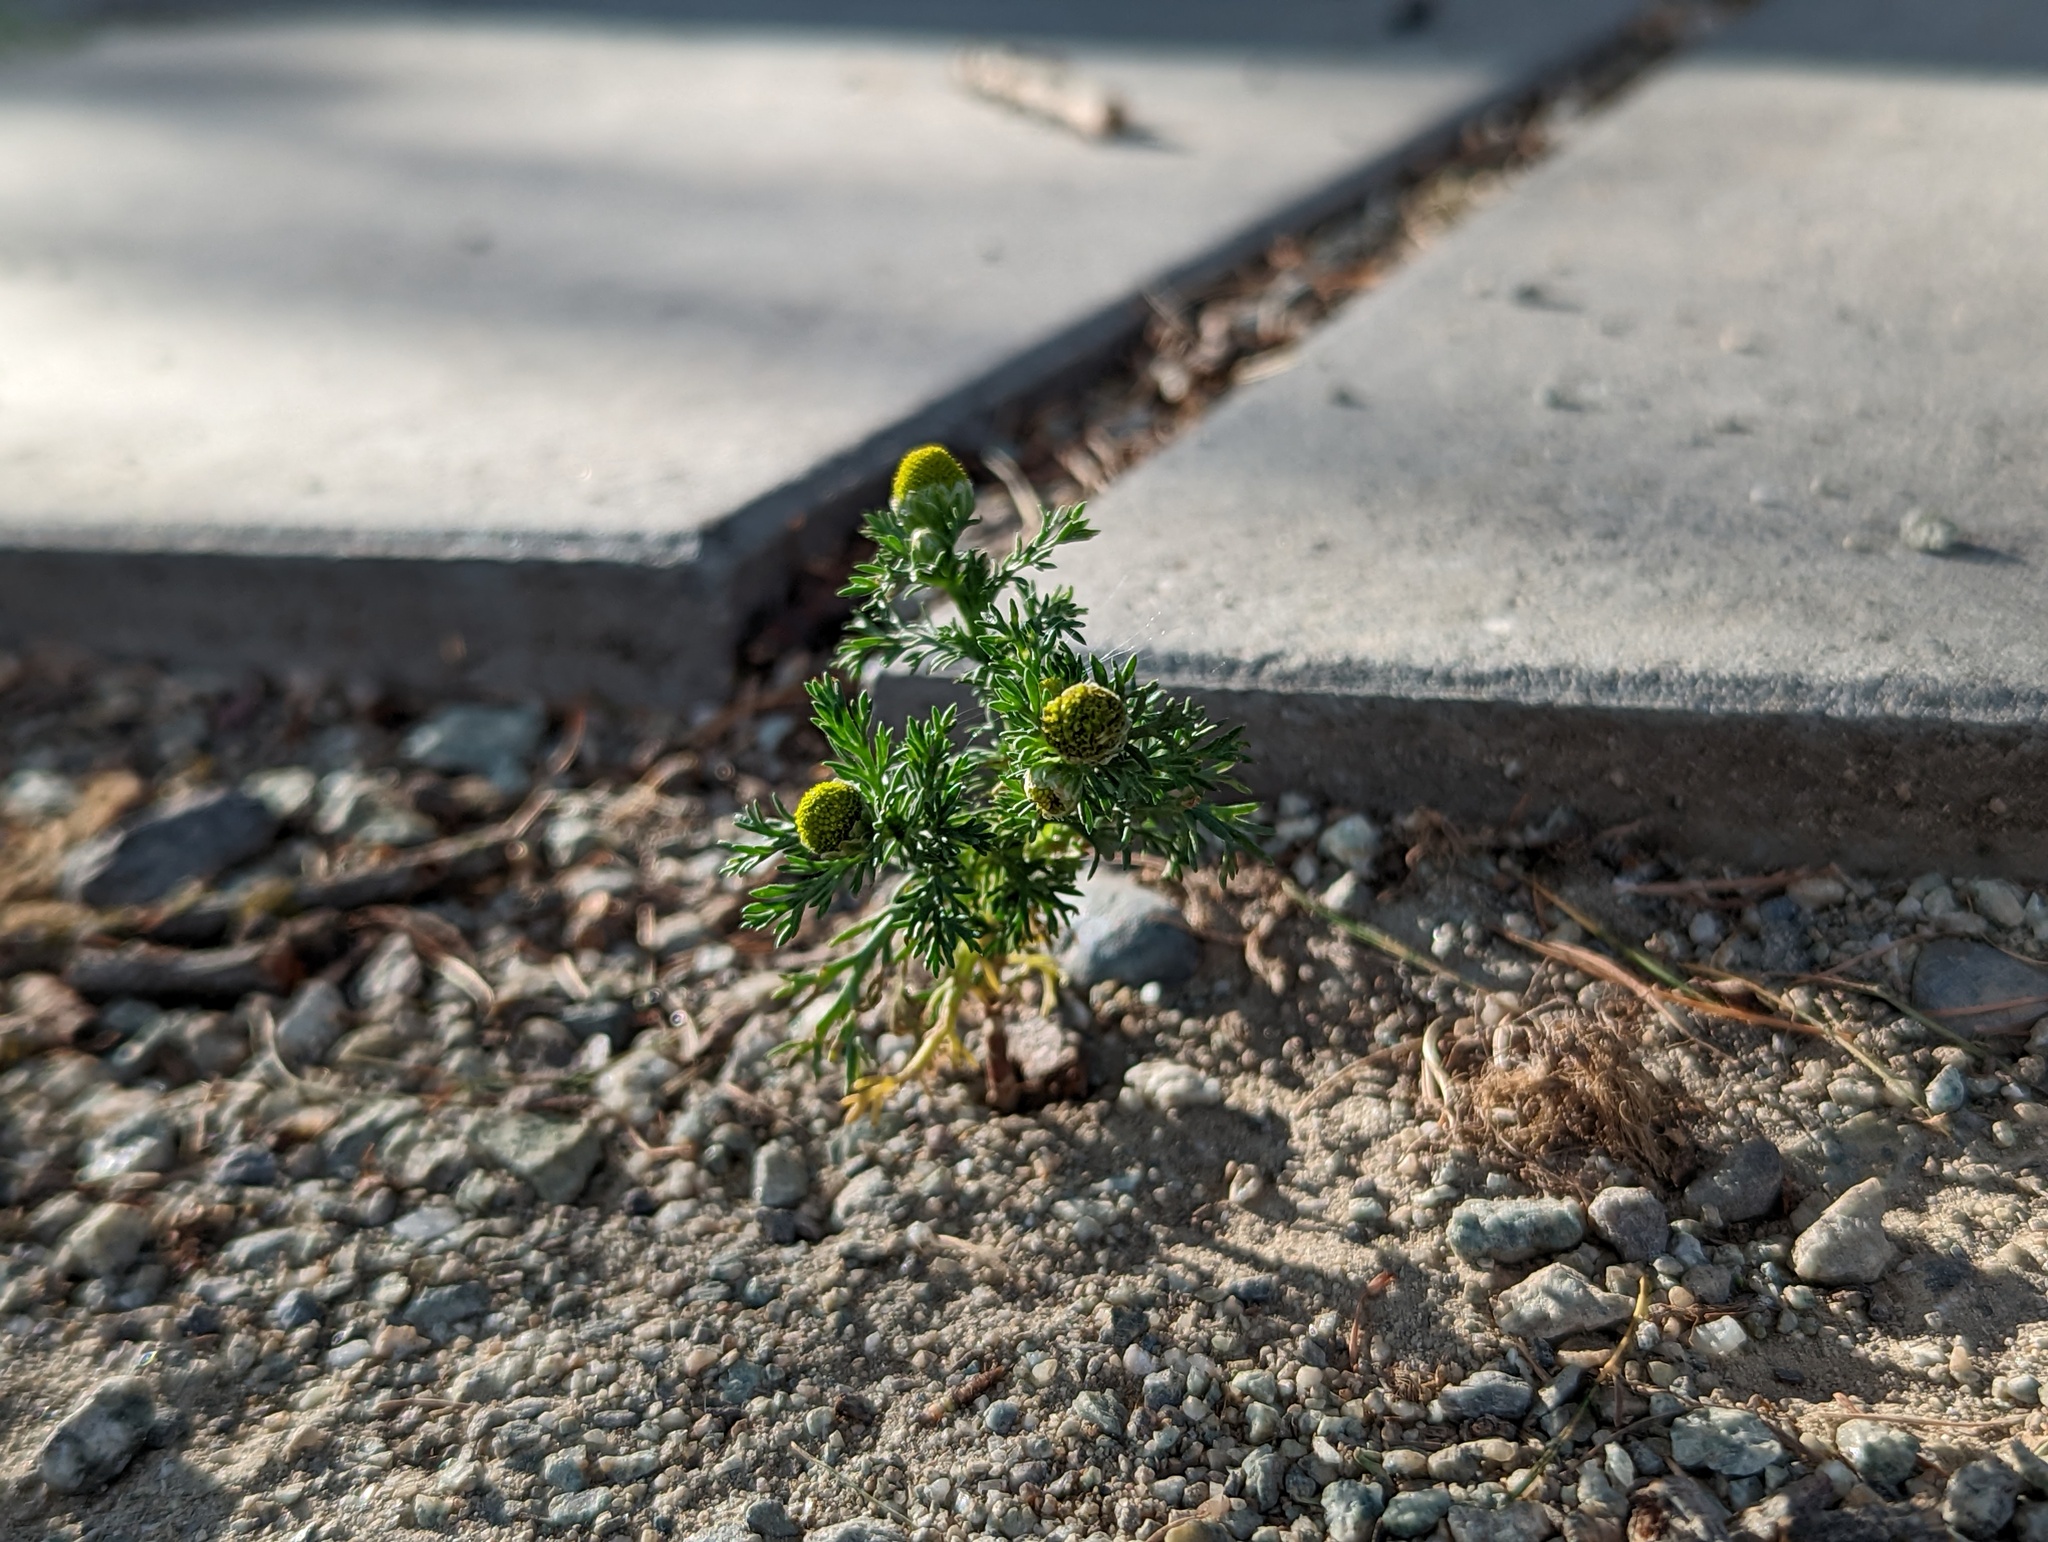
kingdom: Plantae
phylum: Tracheophyta
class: Magnoliopsida
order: Asterales
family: Asteraceae
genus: Matricaria
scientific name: Matricaria discoidea
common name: Disc mayweed
